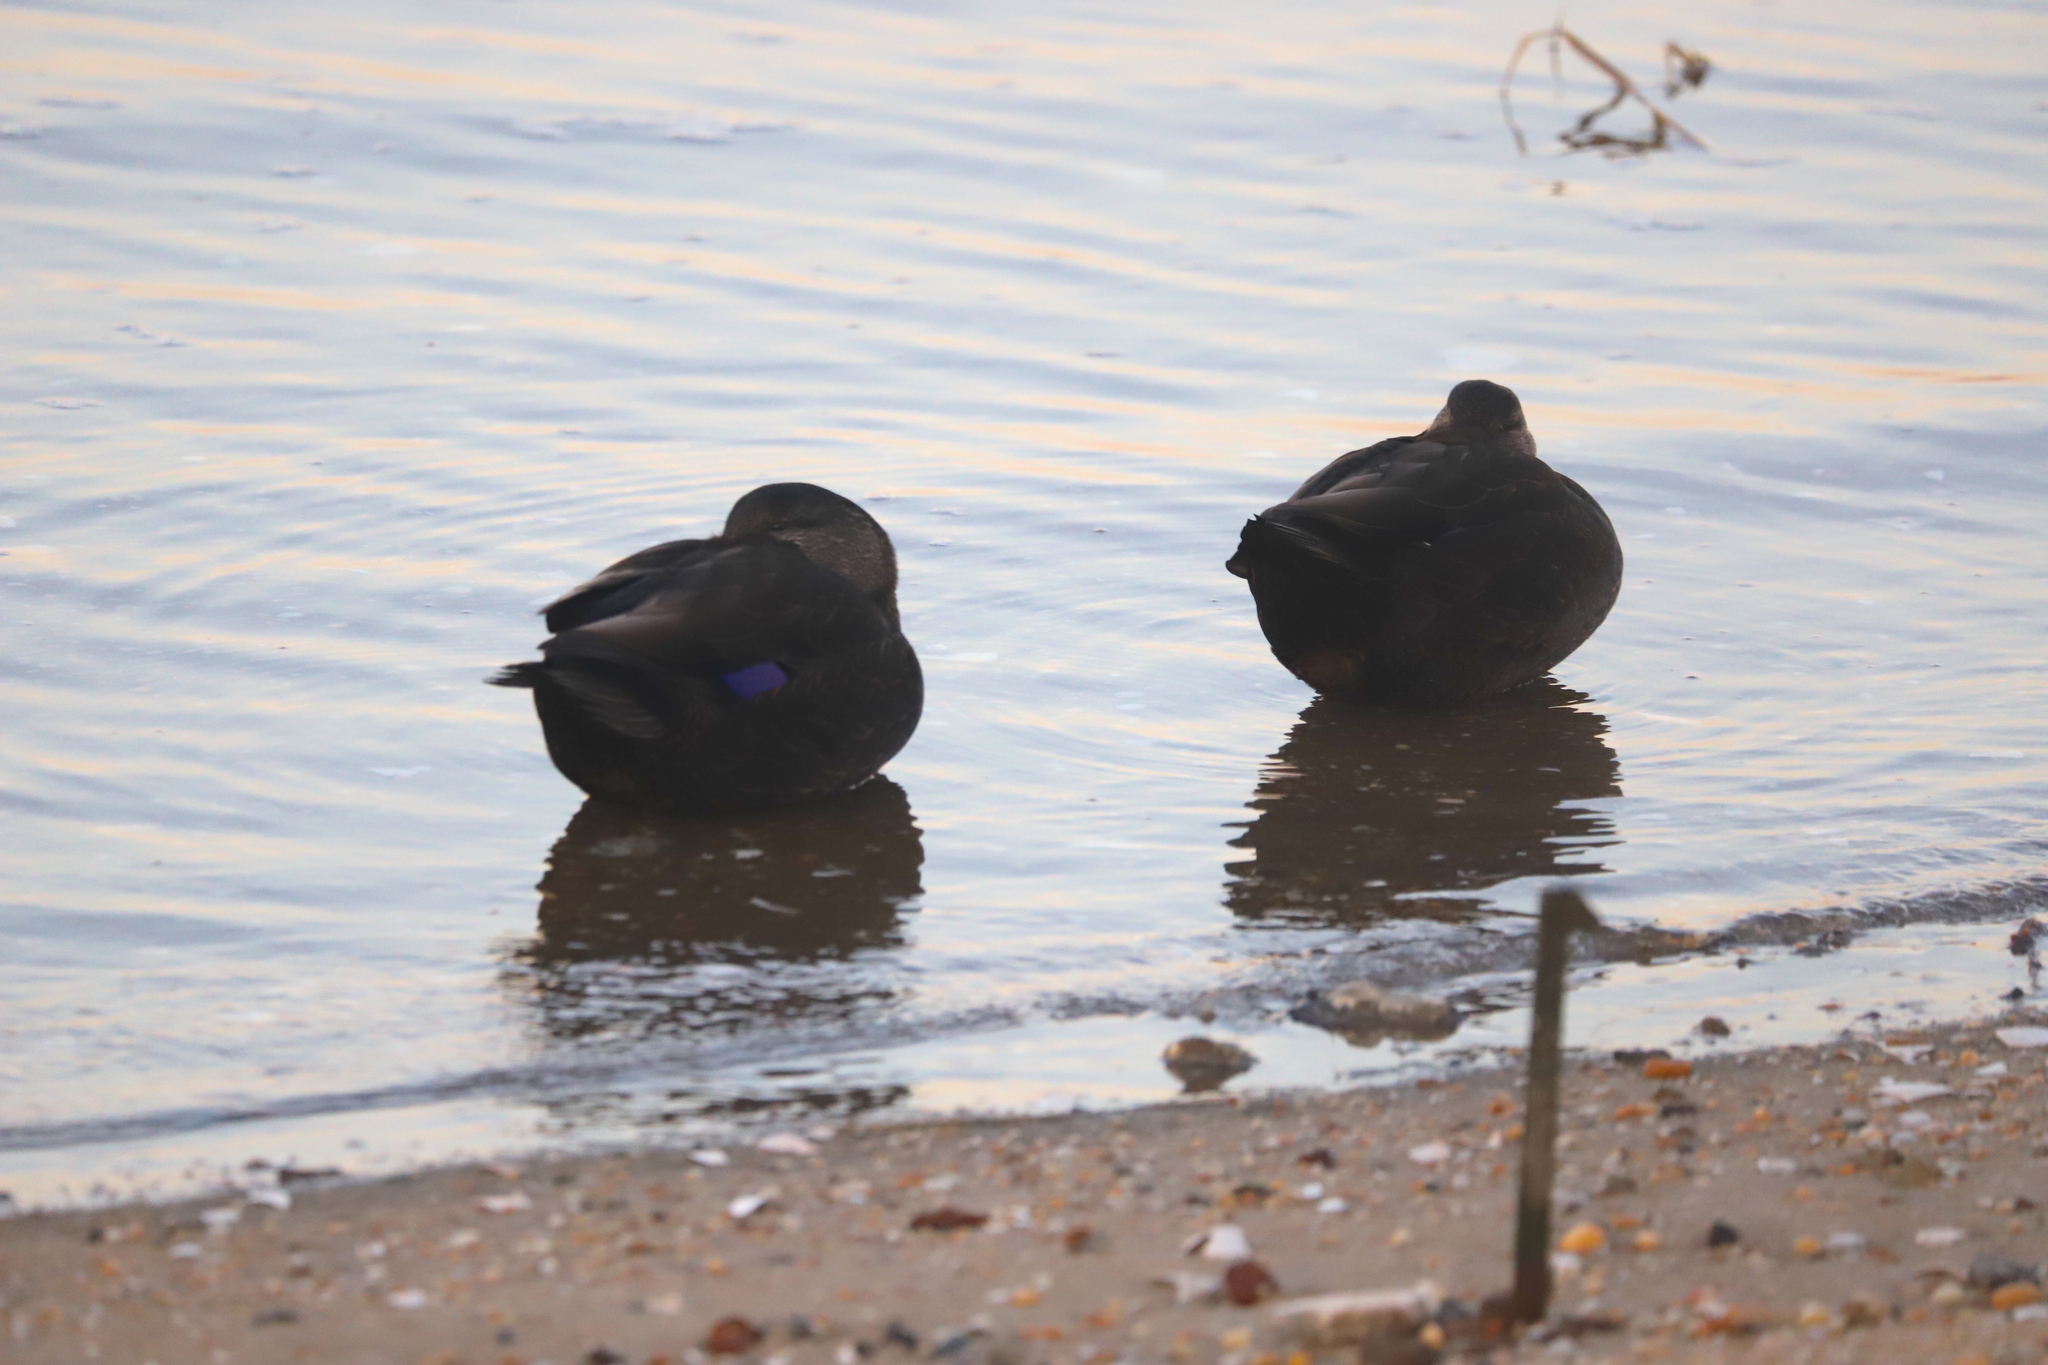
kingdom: Animalia
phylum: Chordata
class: Aves
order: Anseriformes
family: Anatidae
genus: Anas
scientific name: Anas rubripes
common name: American black duck
